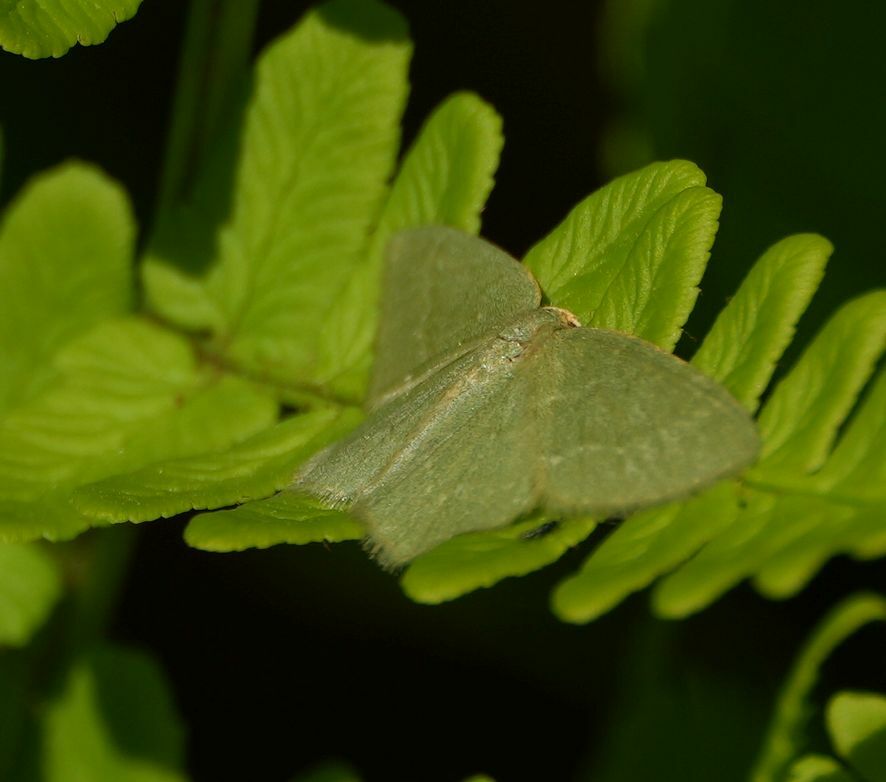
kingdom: Animalia
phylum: Arthropoda
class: Insecta
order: Lepidoptera
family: Geometridae
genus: Thalera
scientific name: Thalera pistasciaria
